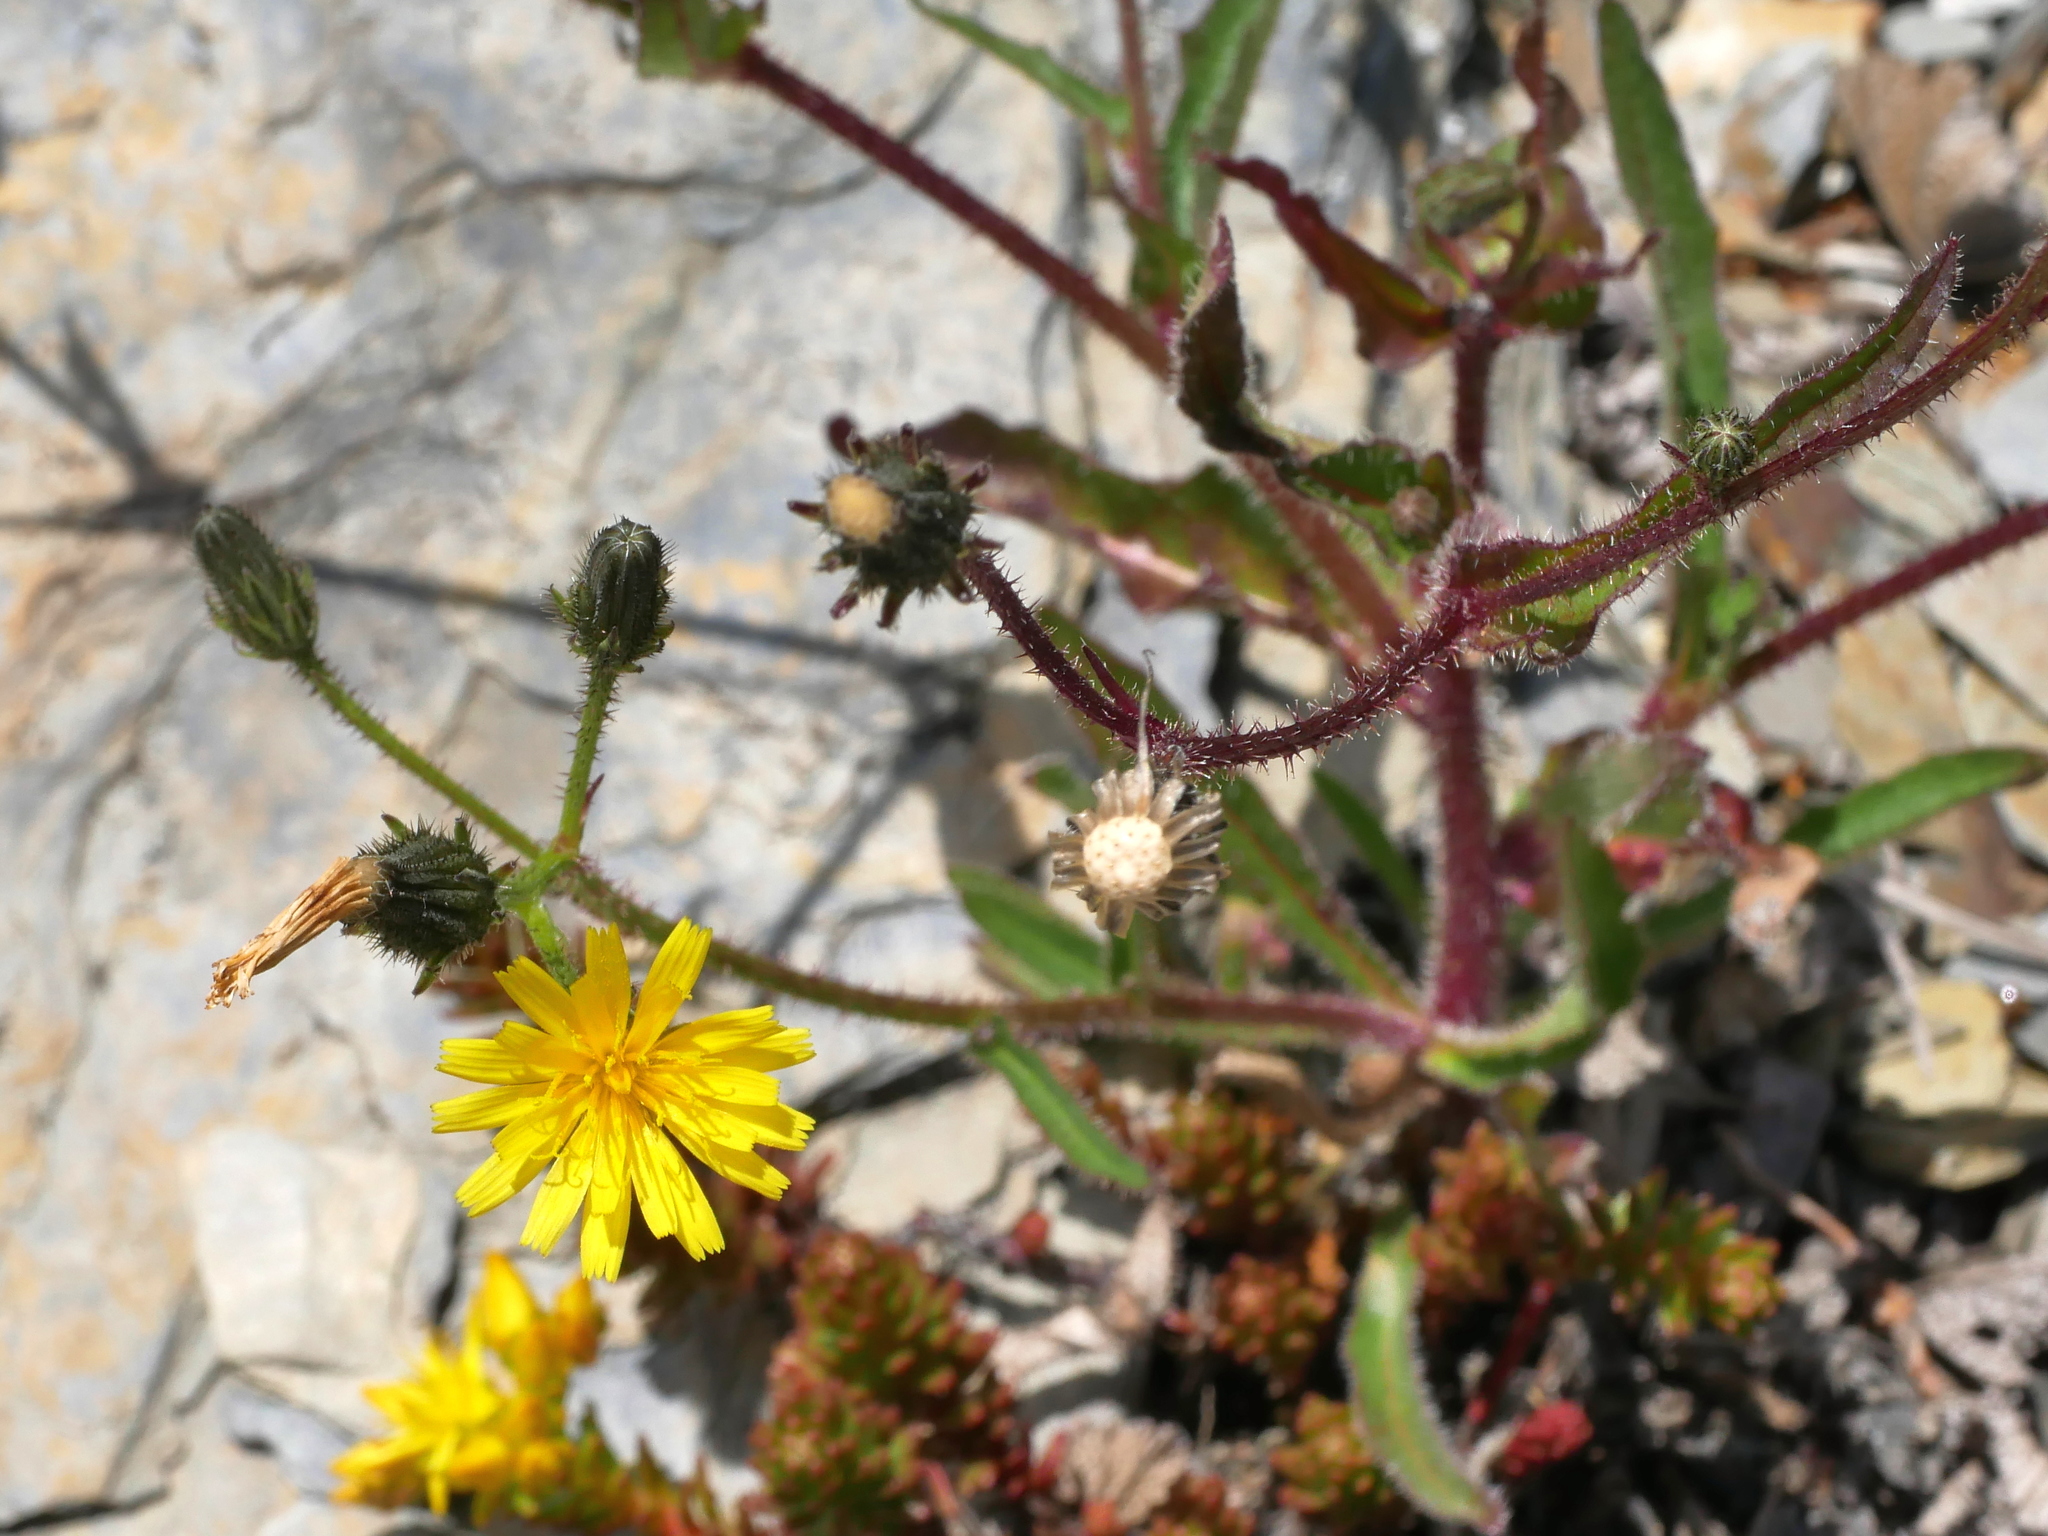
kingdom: Plantae
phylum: Tracheophyta
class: Magnoliopsida
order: Asterales
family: Asteraceae
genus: Picris
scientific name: Picris angustifolia
